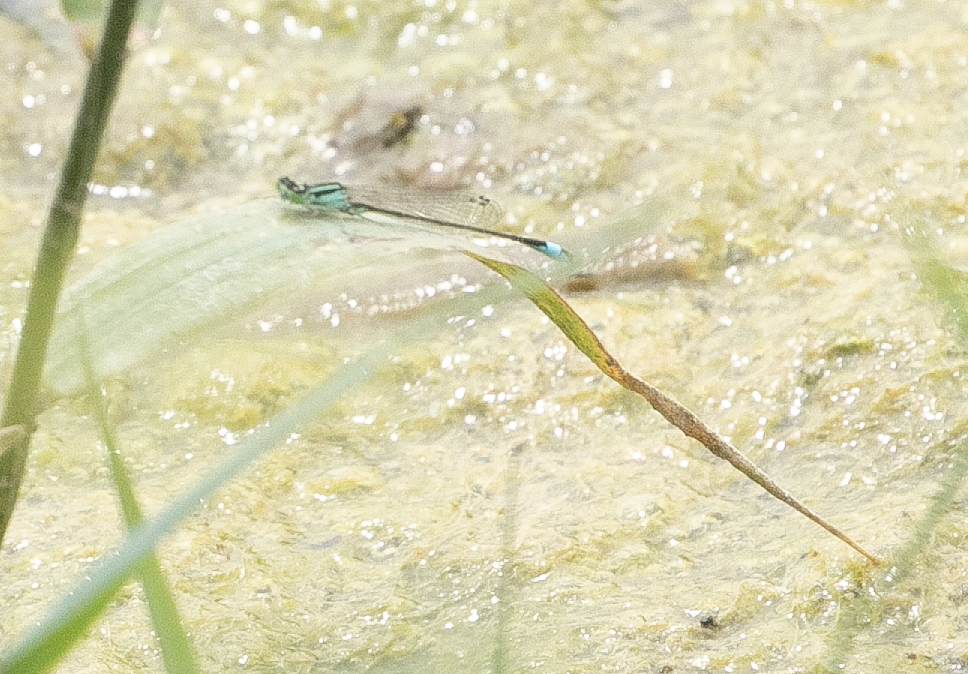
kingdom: Animalia
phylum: Arthropoda
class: Insecta
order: Odonata
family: Coenagrionidae
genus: Ischnura
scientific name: Ischnura elegans
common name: Blue-tailed damselfly
